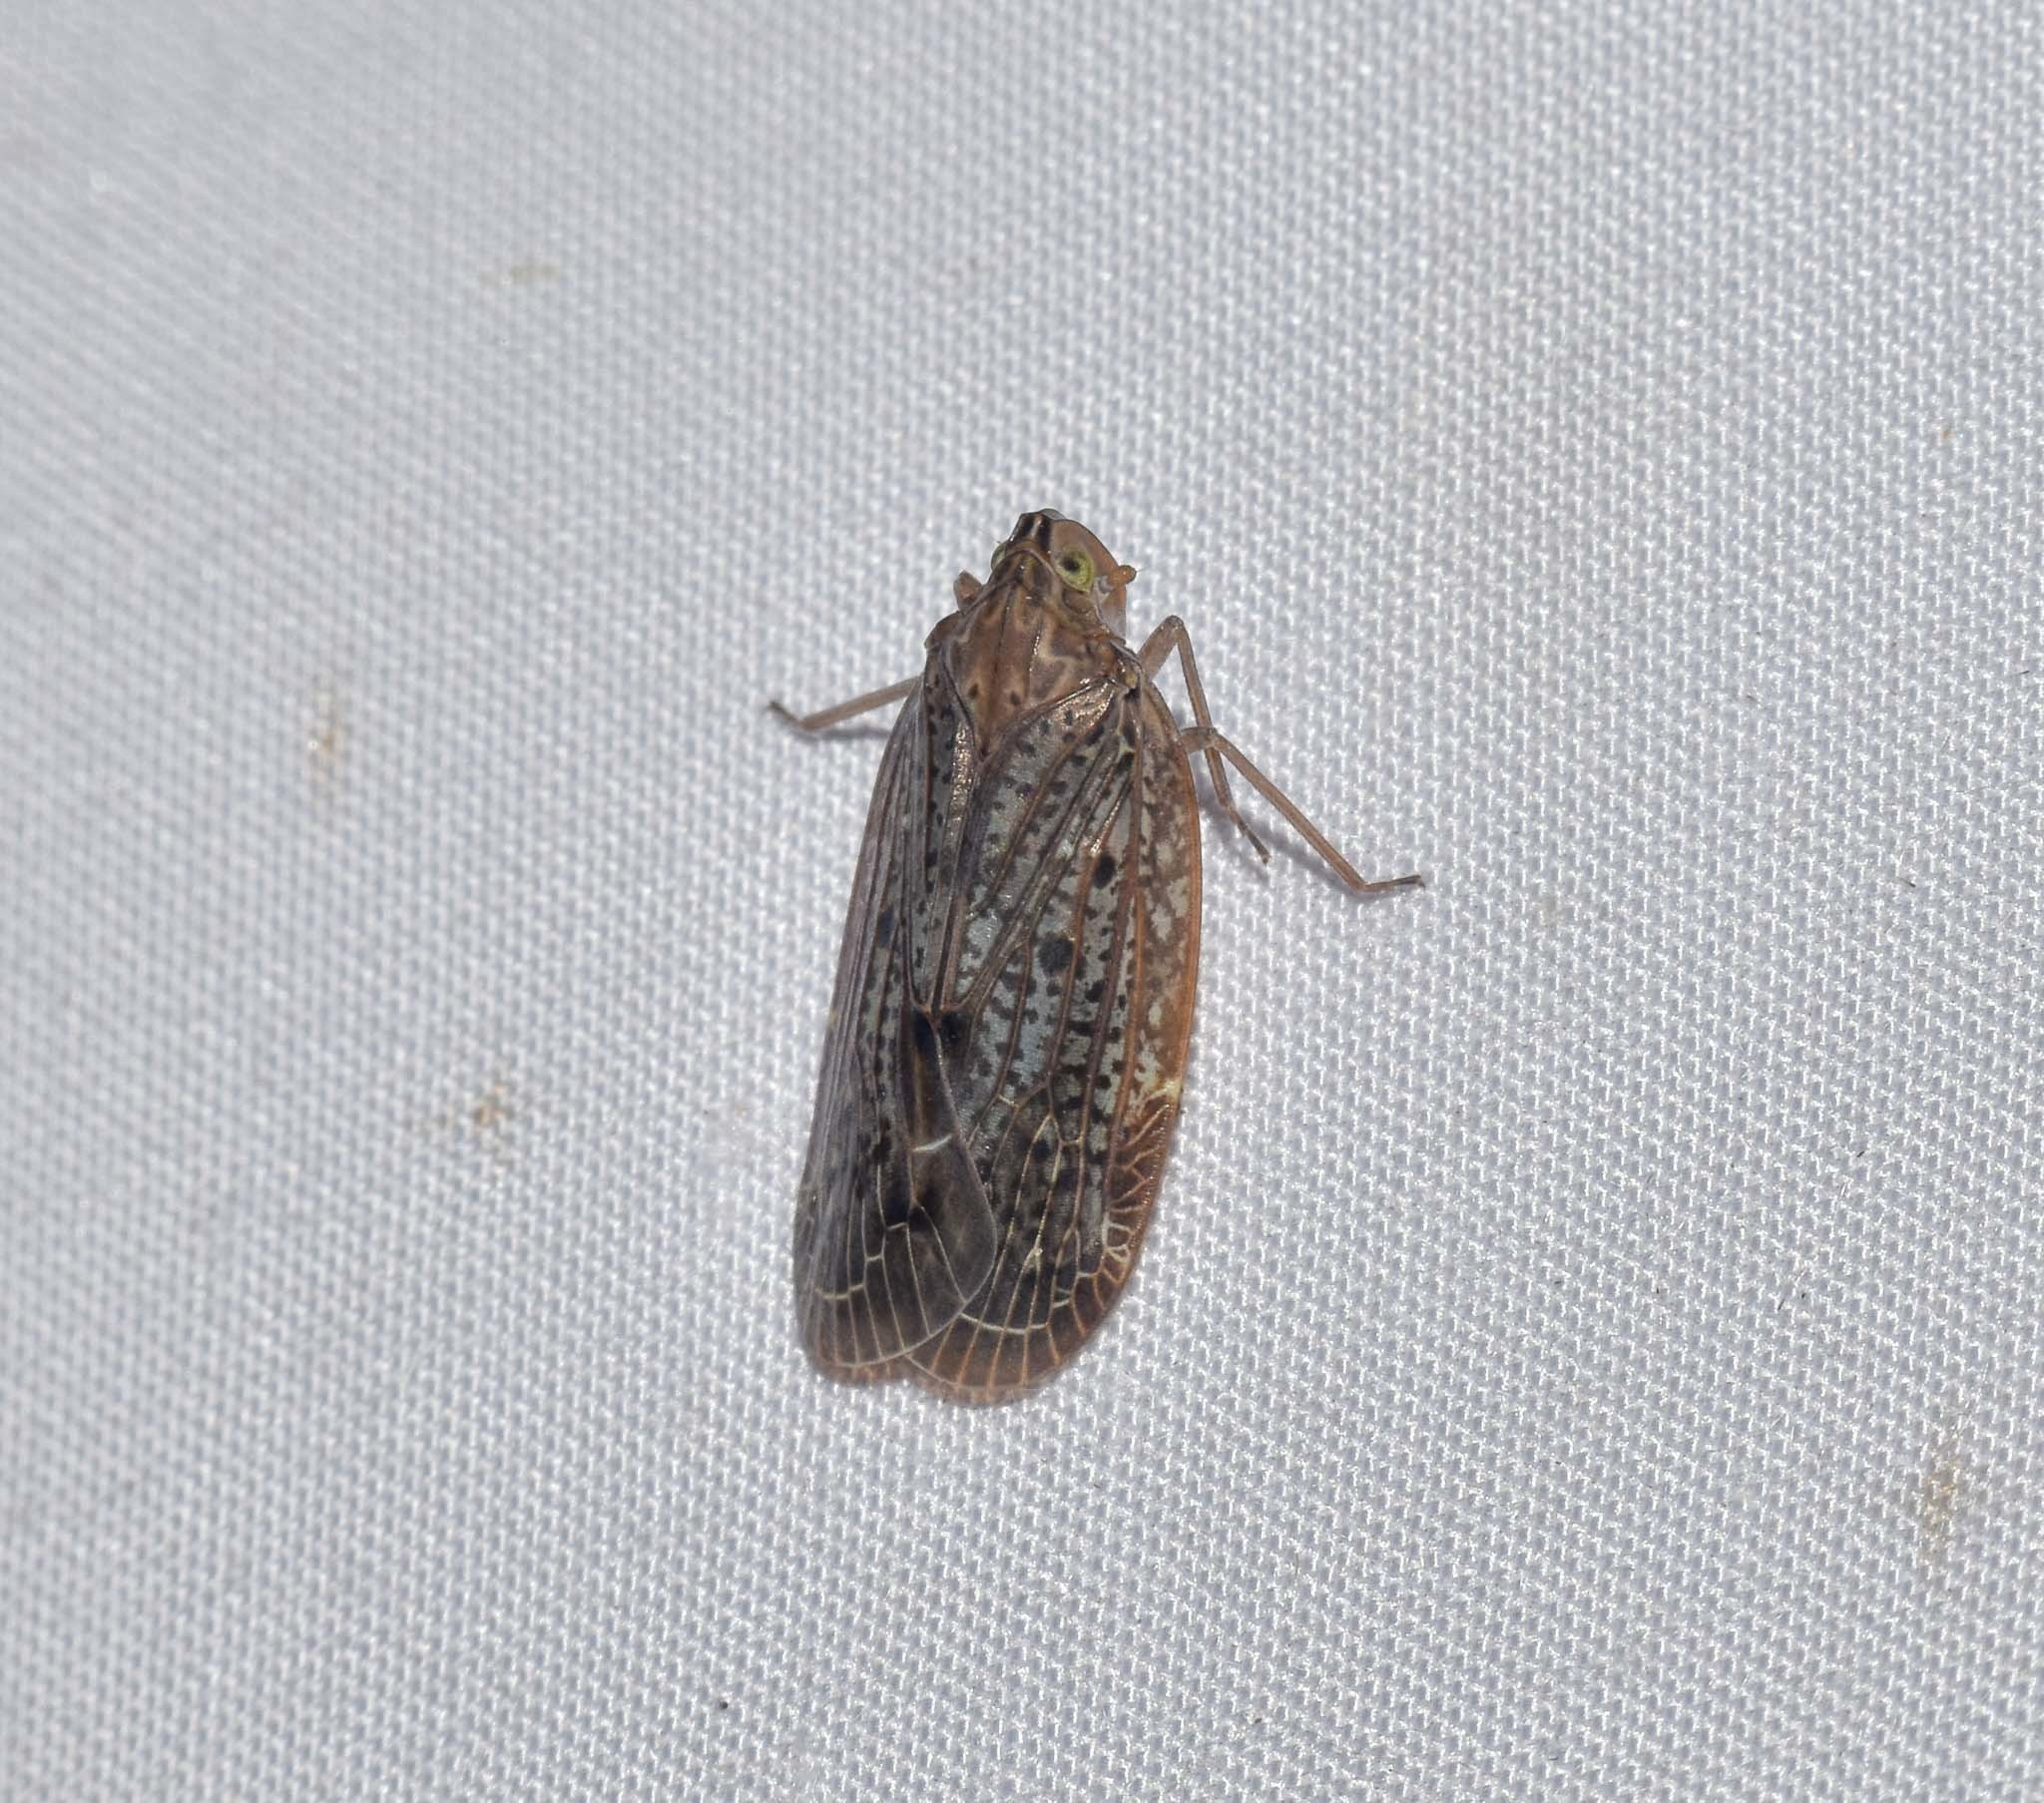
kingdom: Animalia
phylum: Arthropoda
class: Insecta
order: Hemiptera
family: Achilidae
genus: Faventilla
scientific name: Faventilla pustulata
